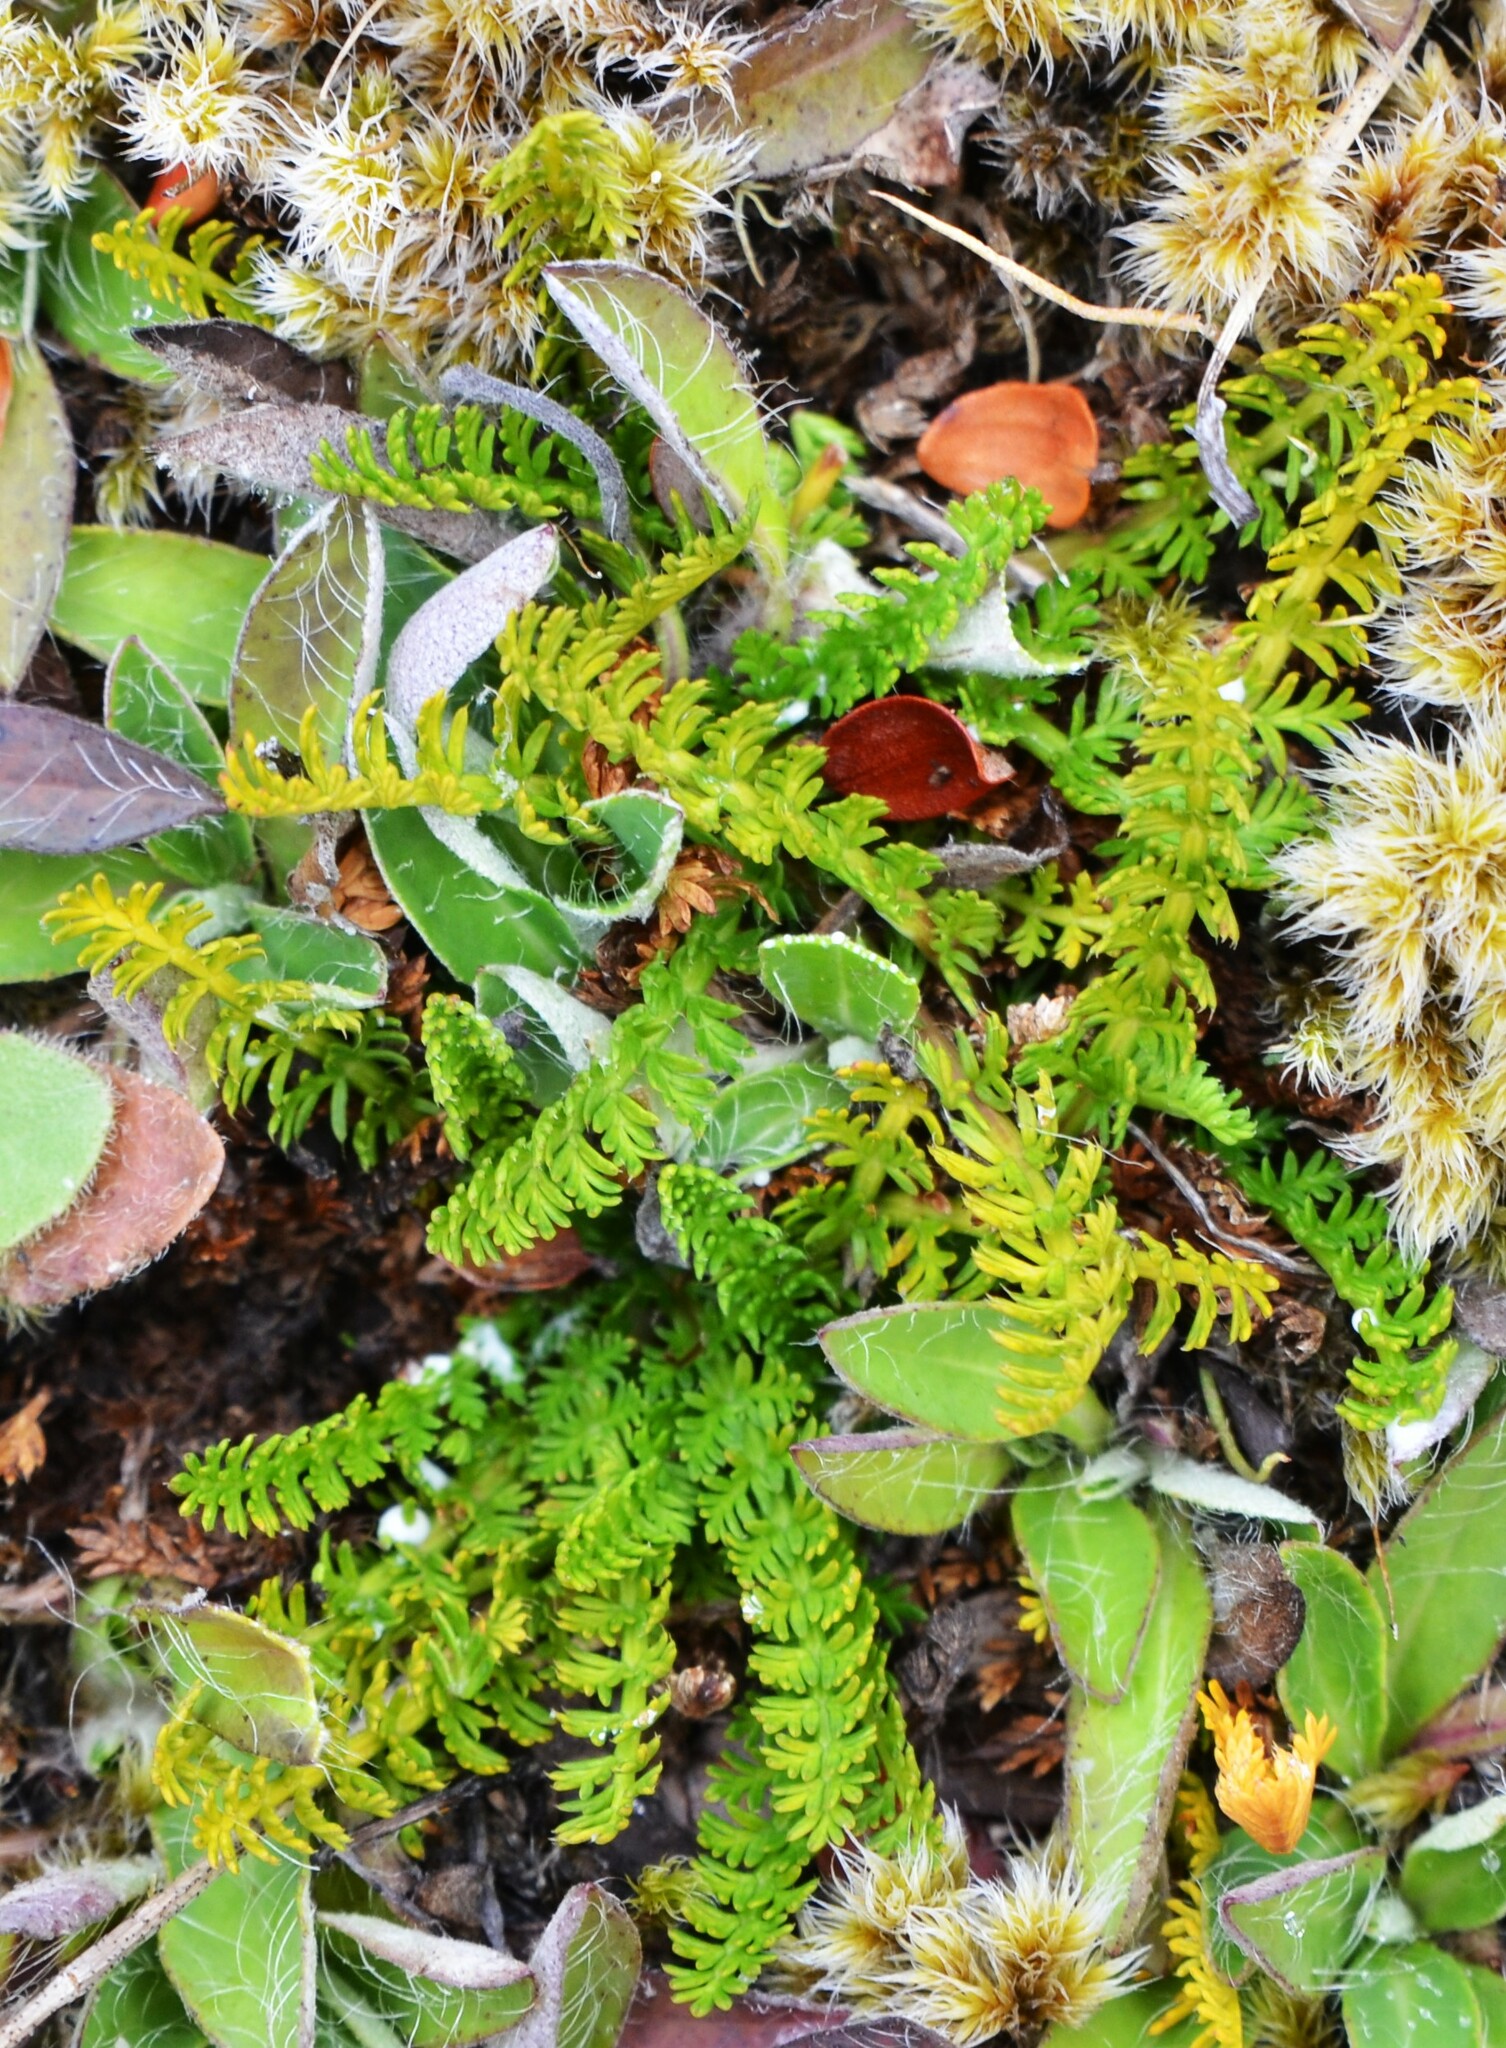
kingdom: Plantae
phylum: Tracheophyta
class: Magnoliopsida
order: Apiales
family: Apiaceae
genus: Anisotome
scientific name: Anisotome flexuosa
